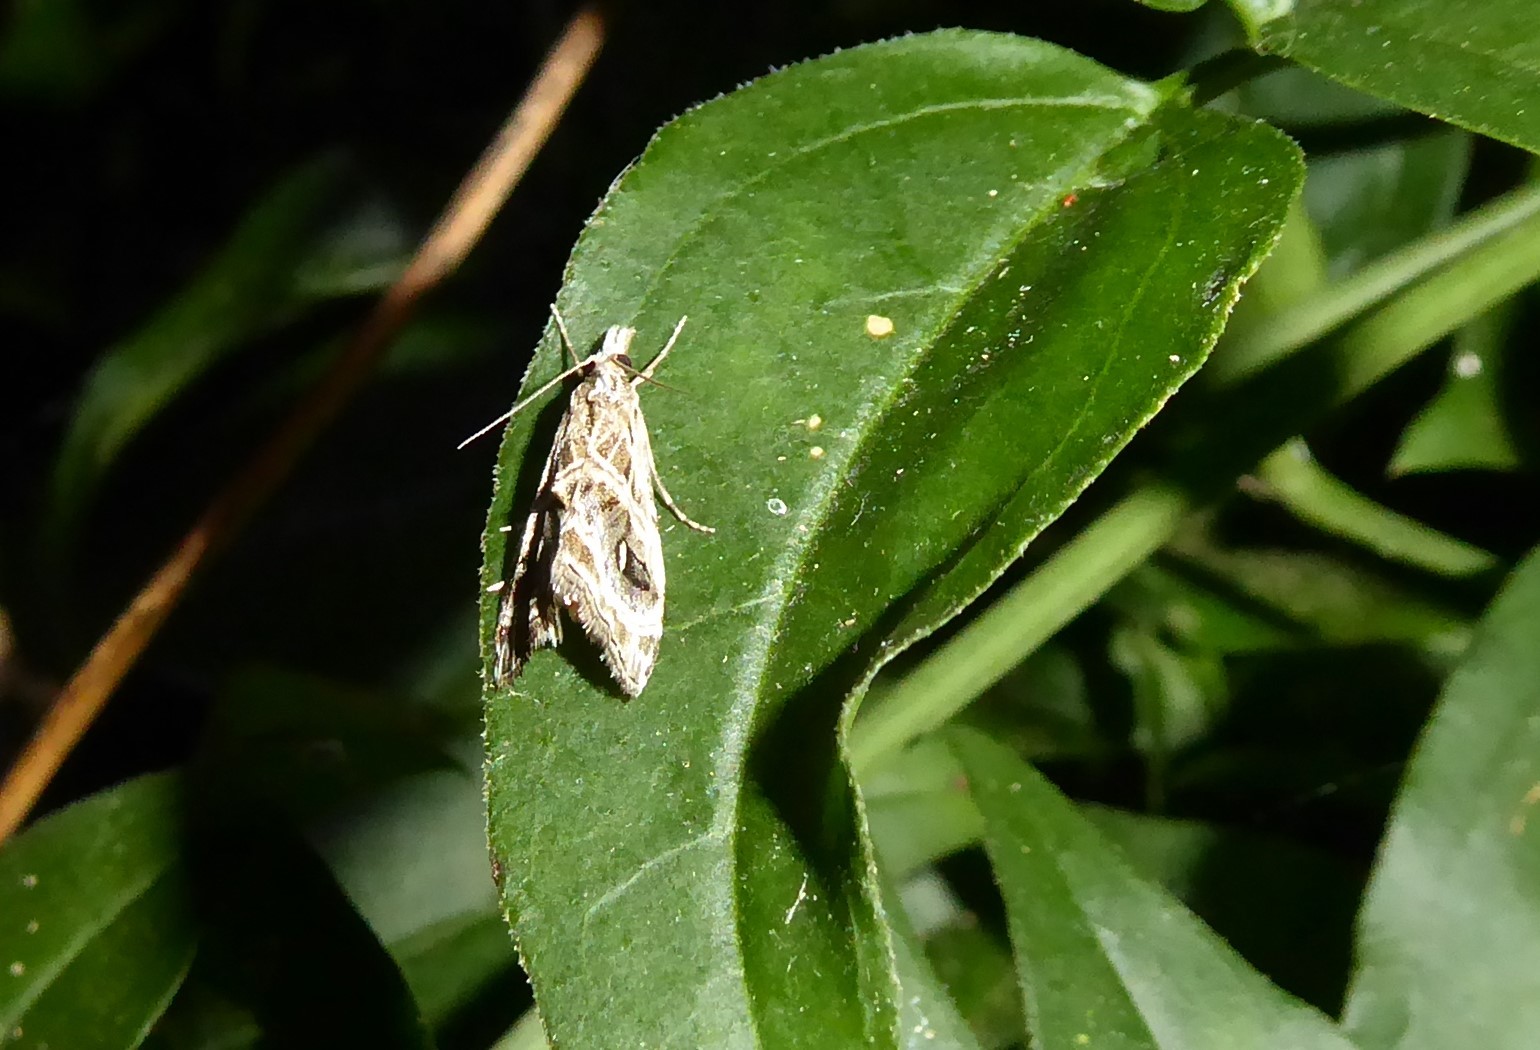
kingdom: Animalia
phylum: Arthropoda
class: Insecta
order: Lepidoptera
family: Crambidae
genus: Gadira
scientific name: Gadira acerella
